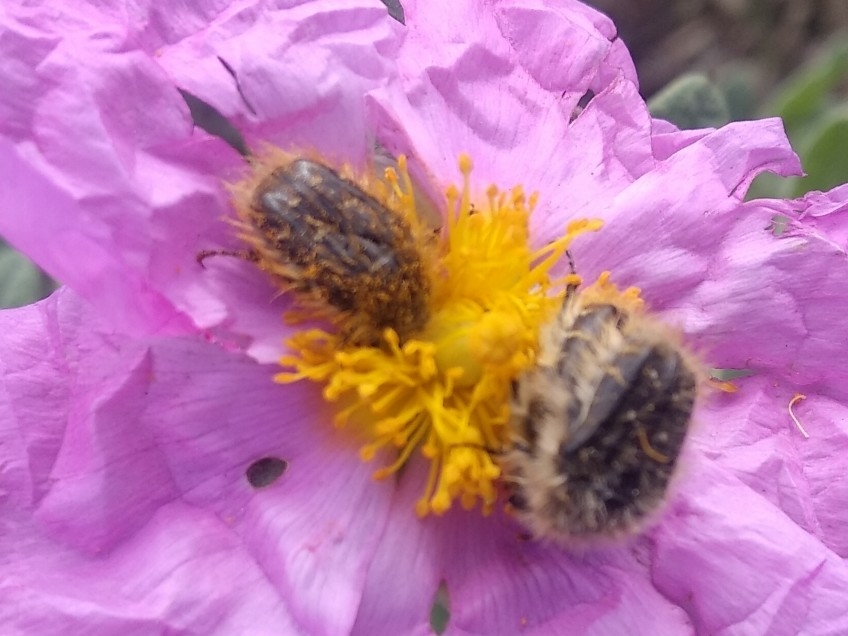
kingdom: Animalia
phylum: Arthropoda
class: Insecta
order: Coleoptera
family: Scarabaeidae
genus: Tropinota
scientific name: Tropinota squalida
